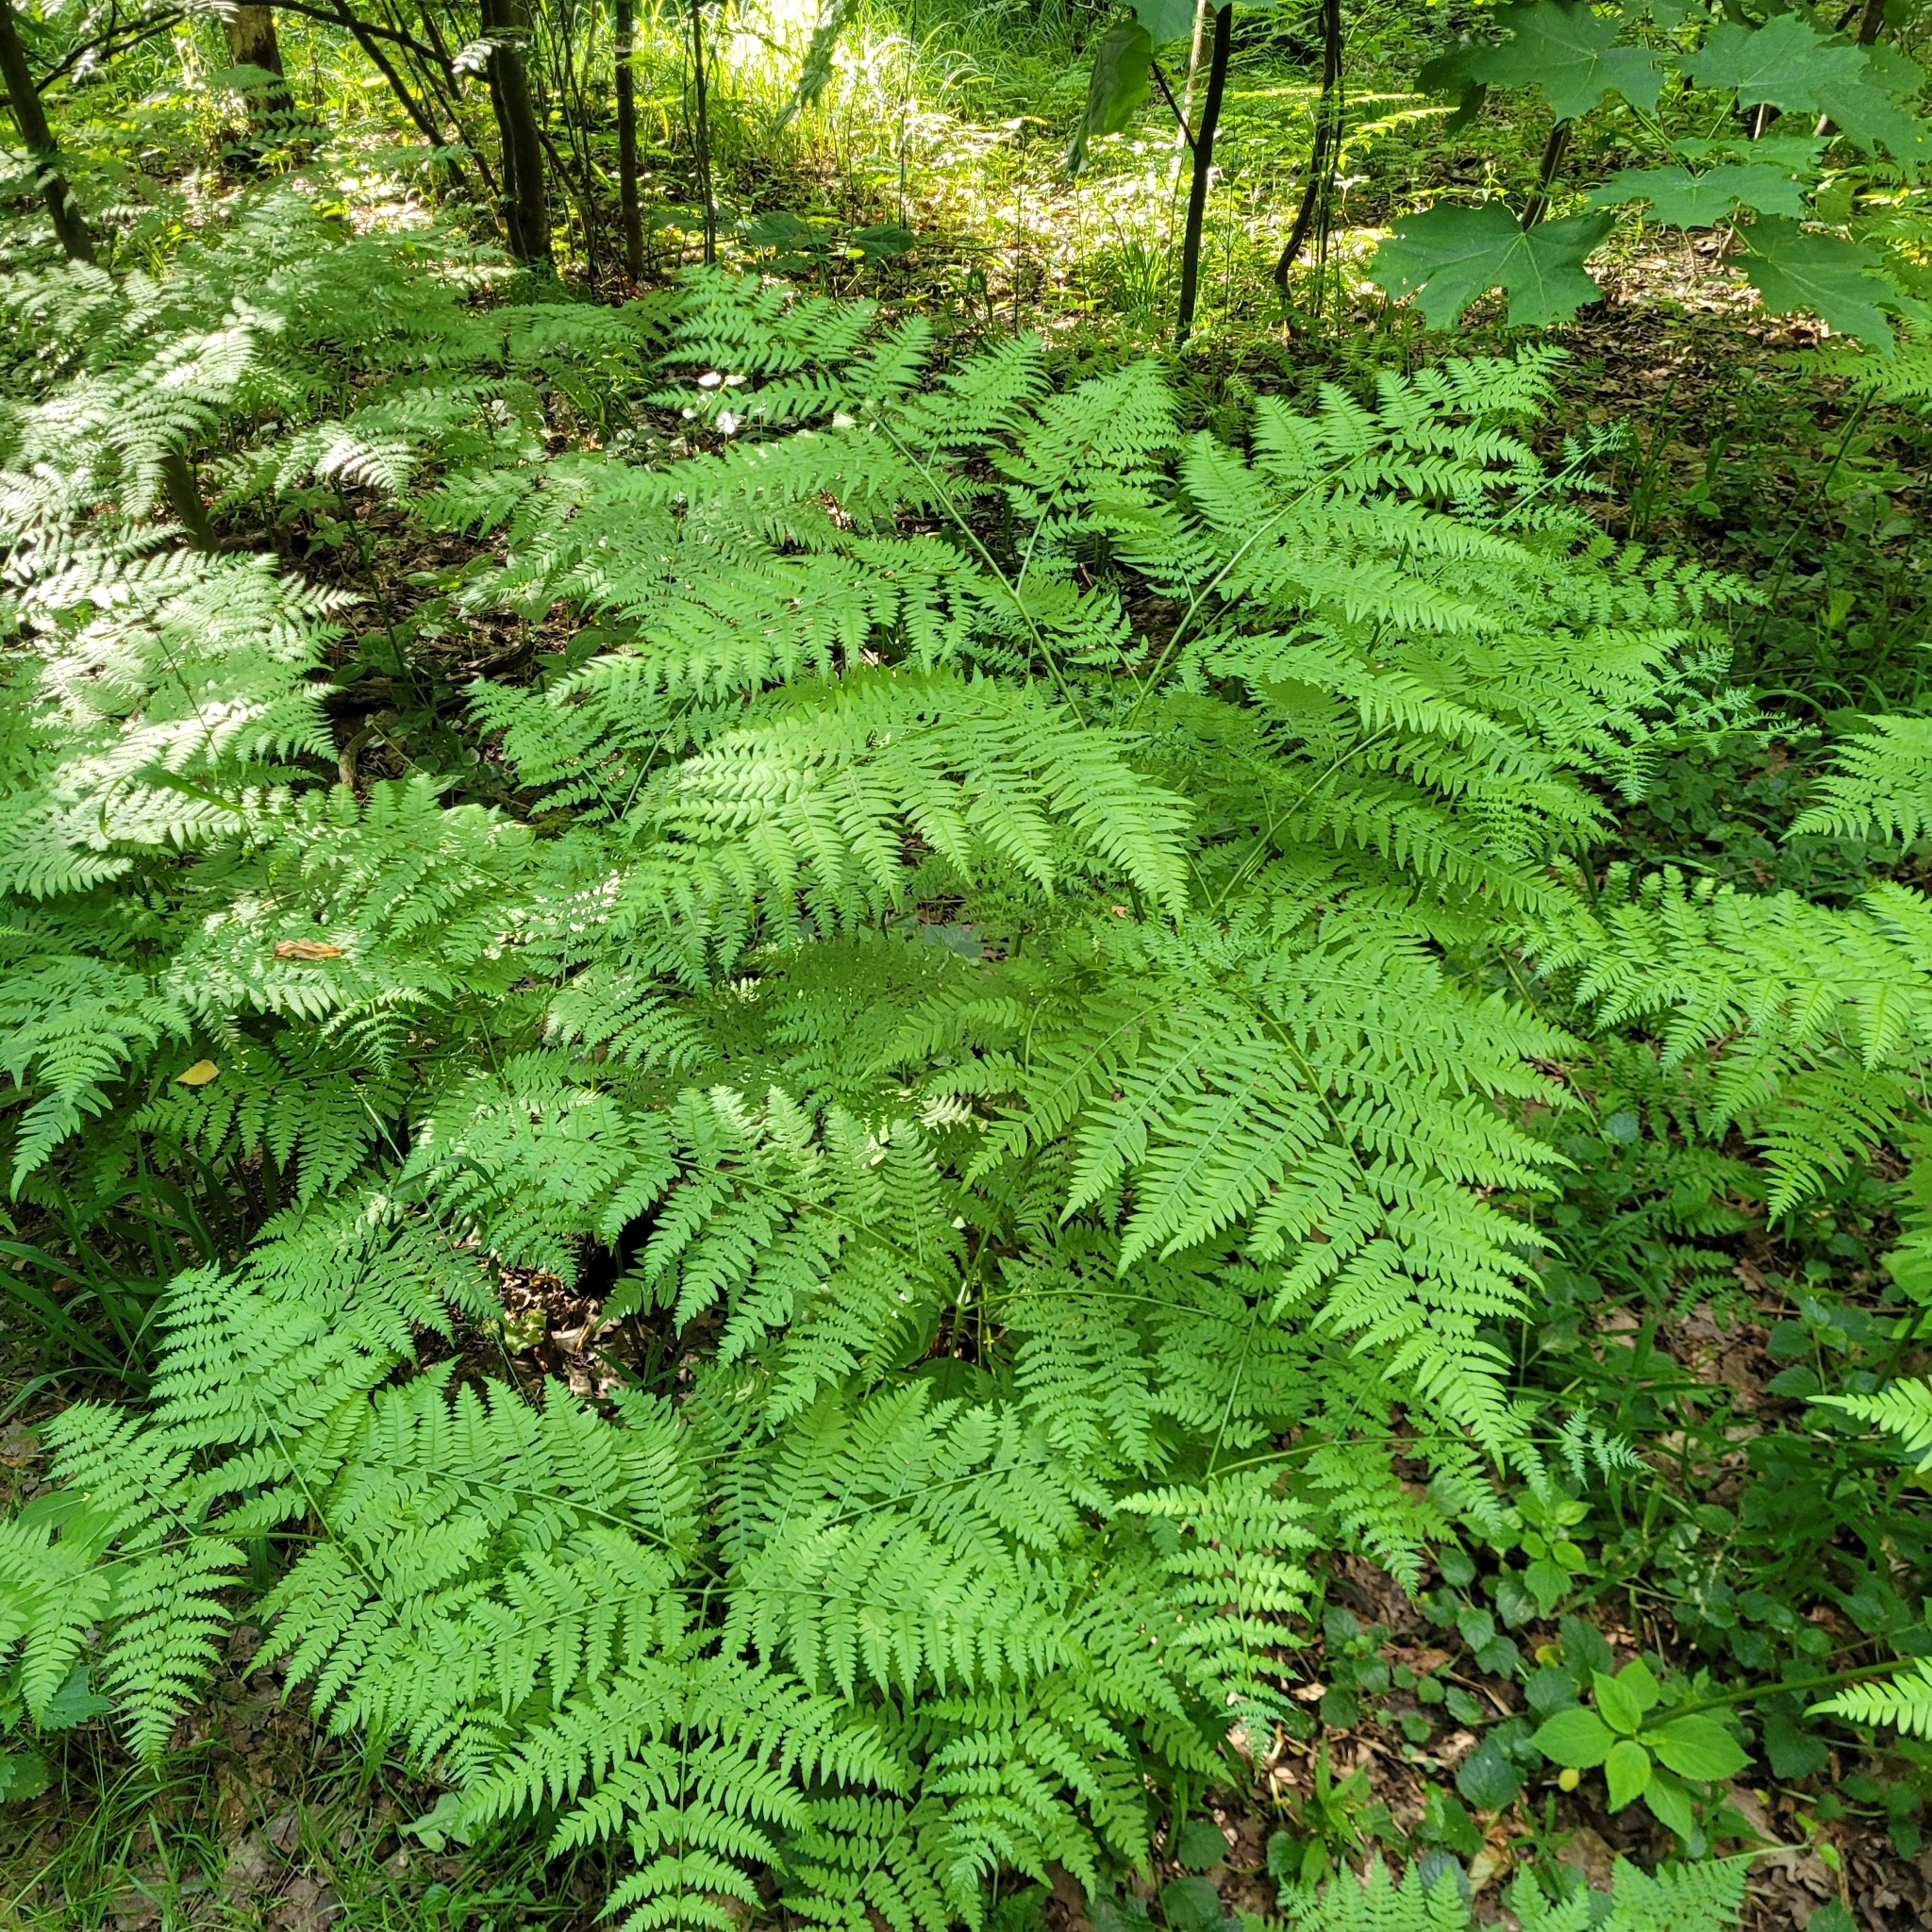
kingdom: Plantae
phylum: Tracheophyta
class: Polypodiopsida
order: Polypodiales
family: Dennstaedtiaceae
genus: Pteridium
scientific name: Pteridium aquilinum
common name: Bracken
